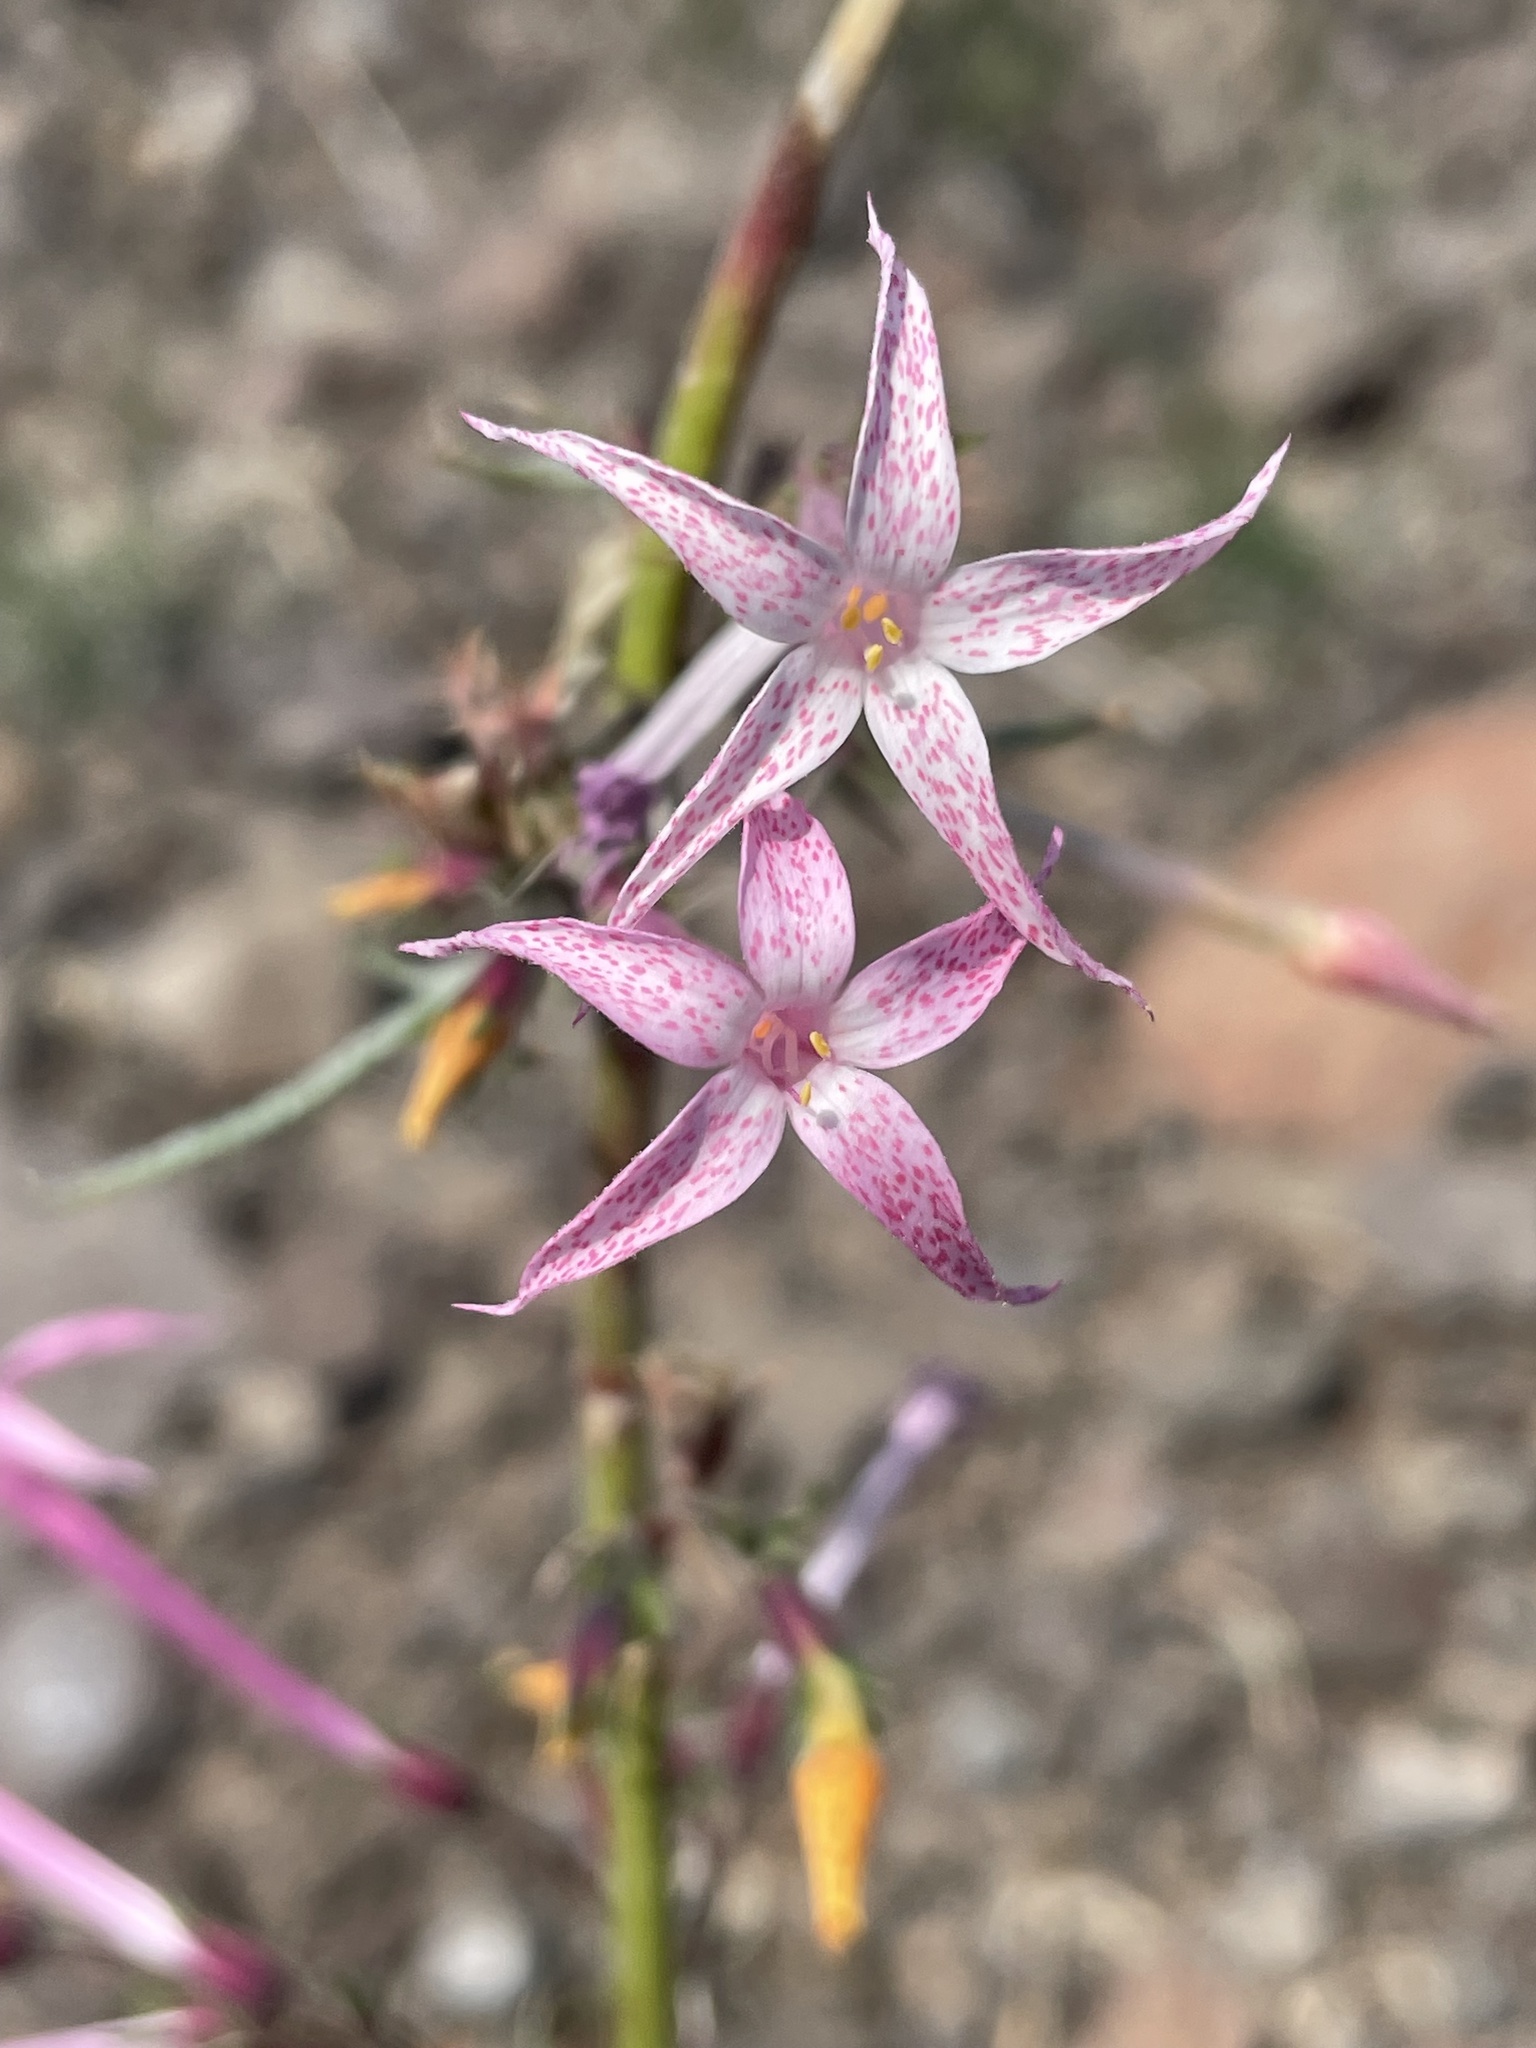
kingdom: Plantae
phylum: Tracheophyta
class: Magnoliopsida
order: Ericales
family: Polemoniaceae
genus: Ipomopsis
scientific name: Ipomopsis tenuituba
